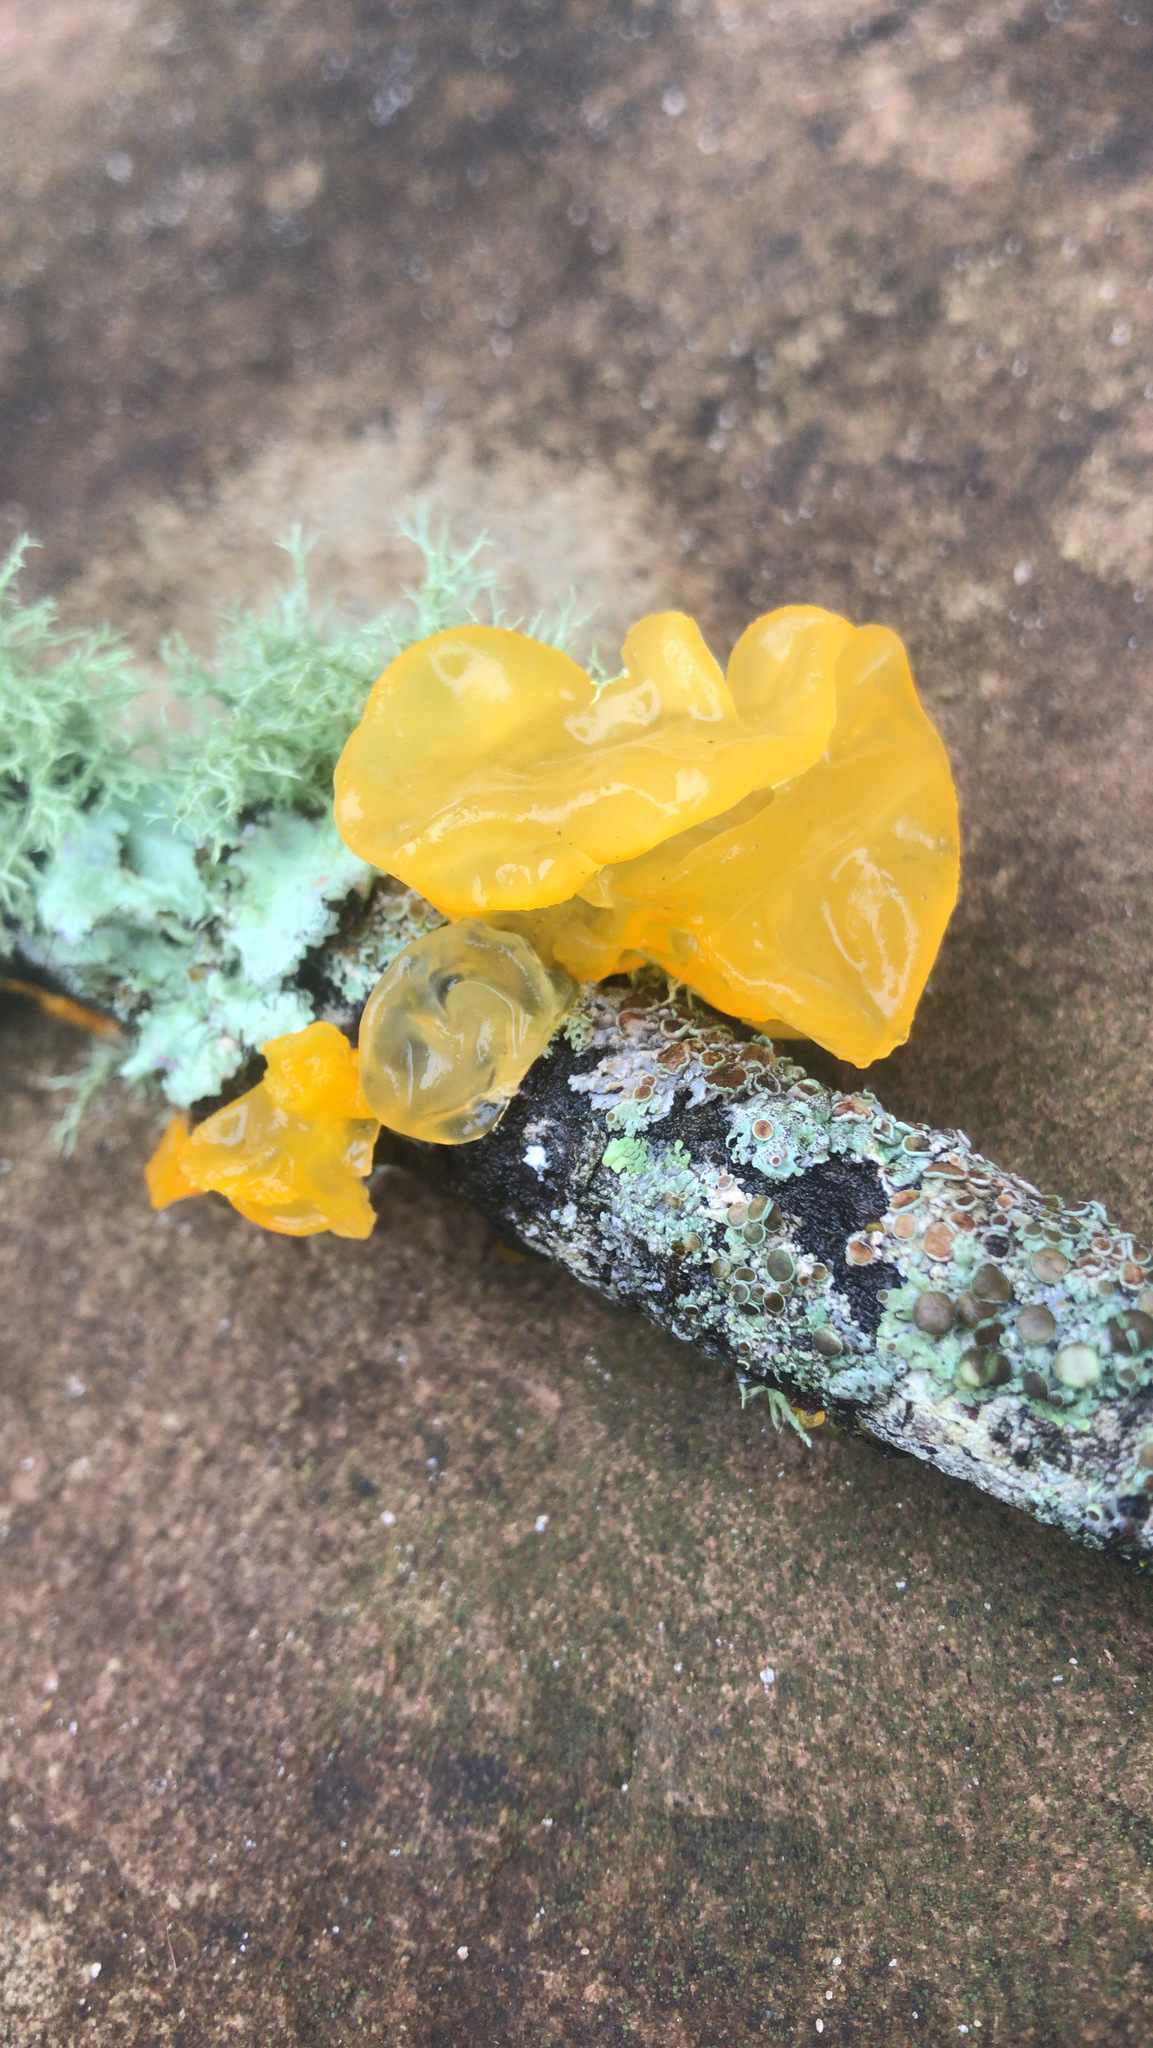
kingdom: Fungi
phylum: Basidiomycota
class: Tremellomycetes
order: Tremellales
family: Tremellaceae
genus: Tremella
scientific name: Tremella mesenterica
